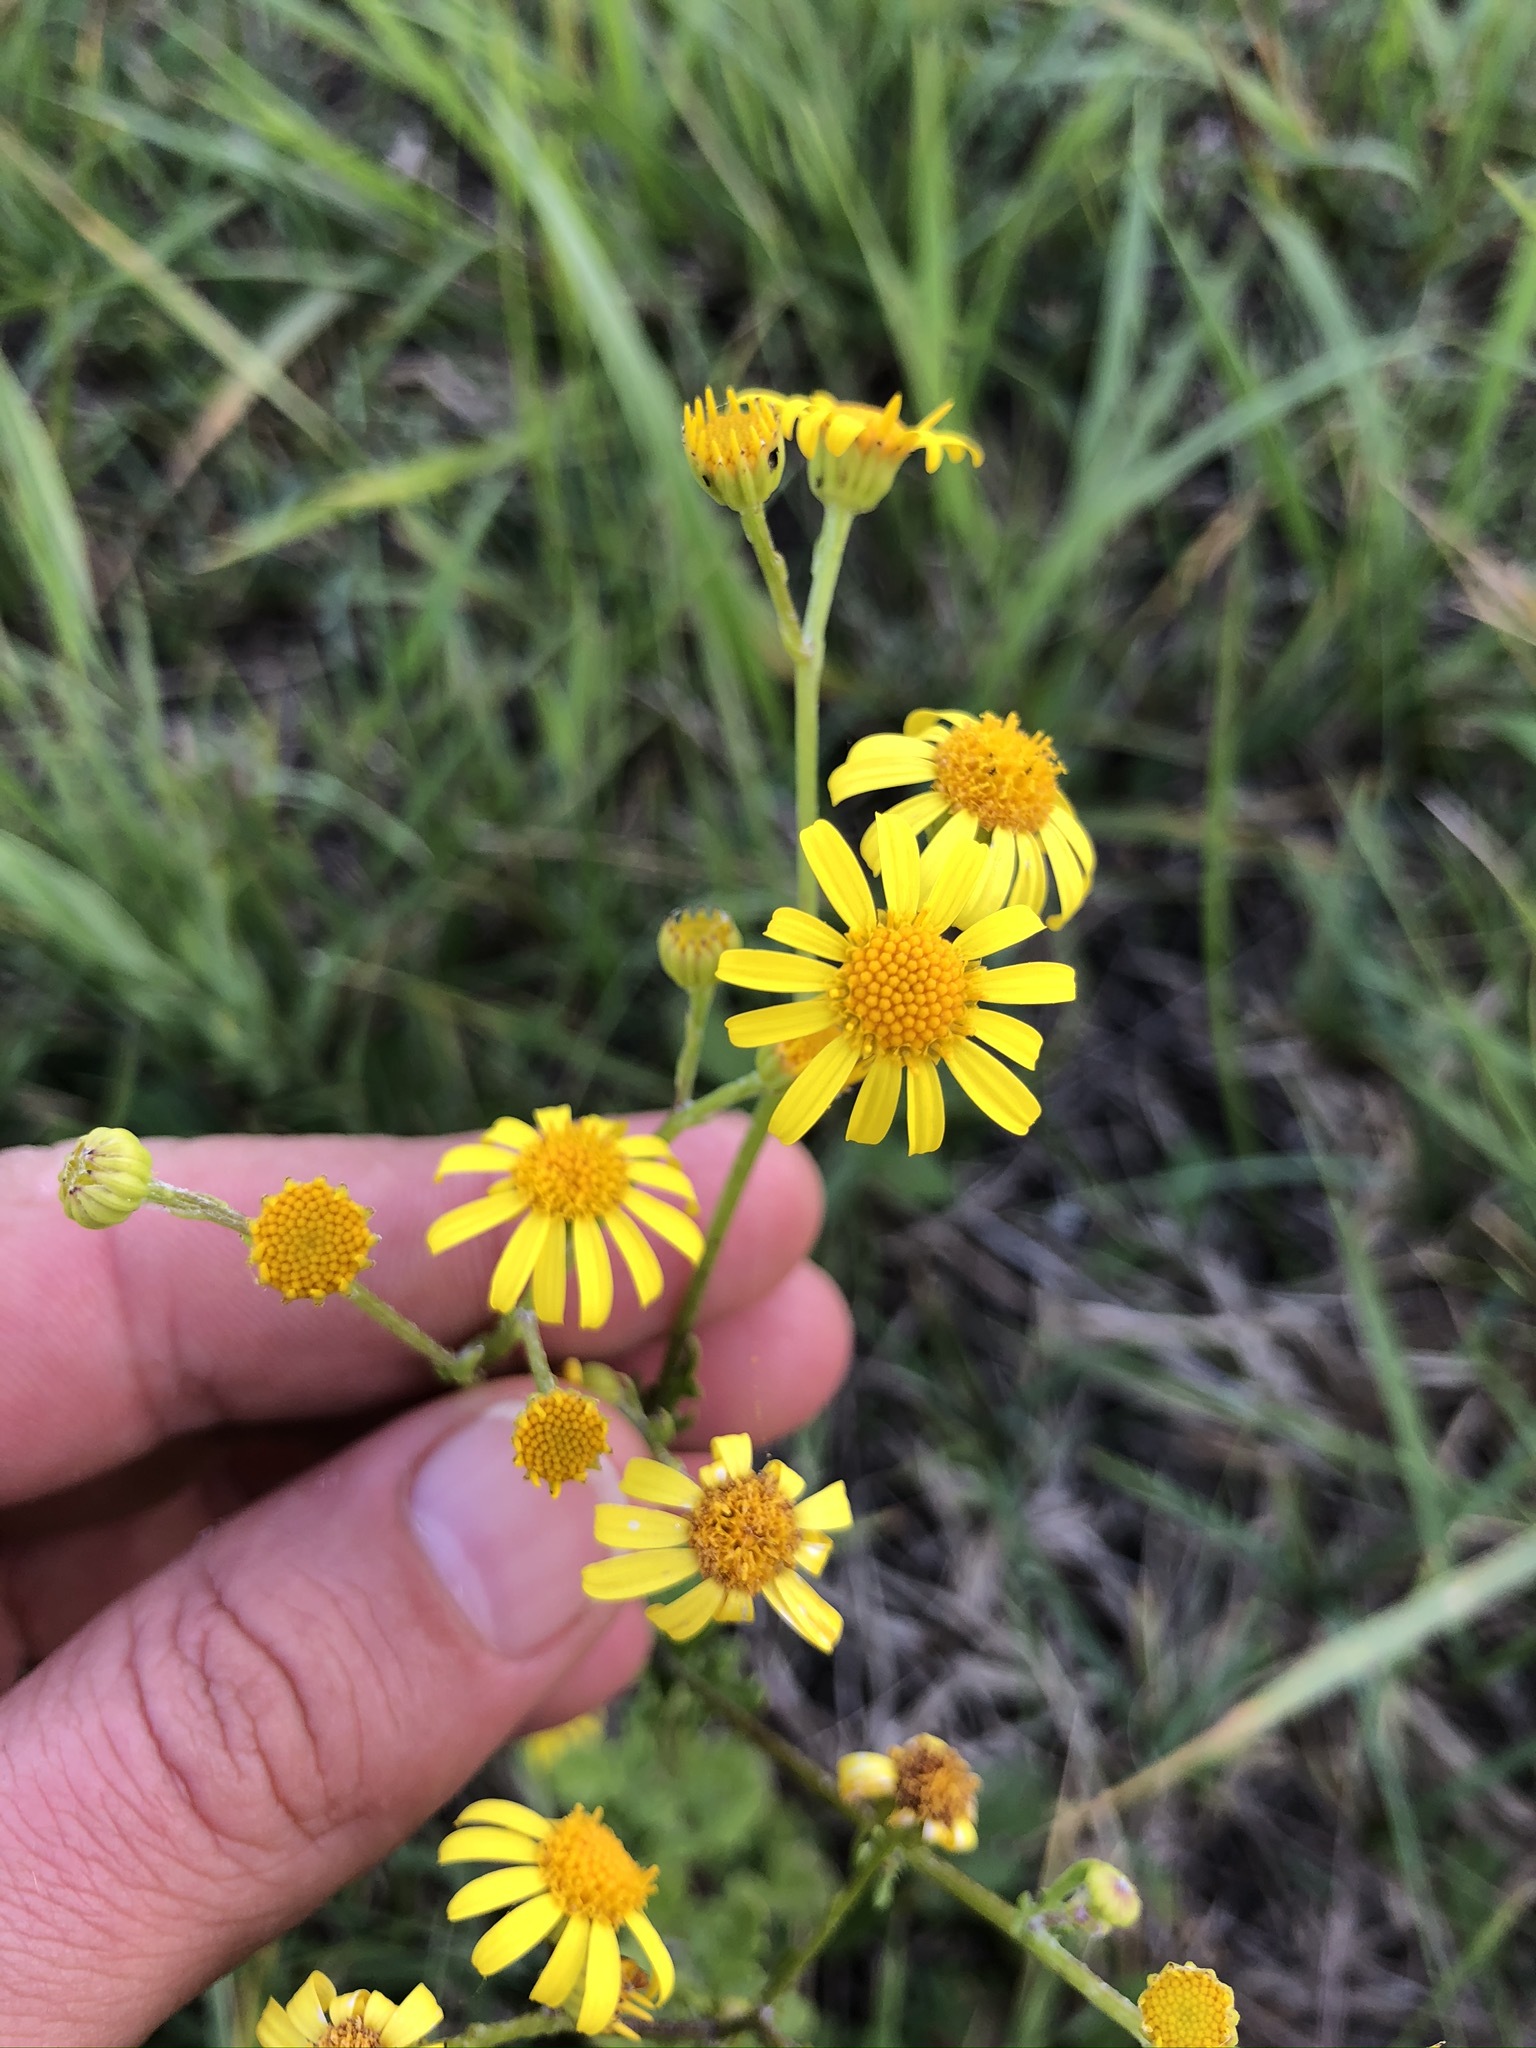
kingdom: Plantae
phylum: Tracheophyta
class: Magnoliopsida
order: Asterales
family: Asteraceae
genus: Jacobaea
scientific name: Jacobaea erratica
